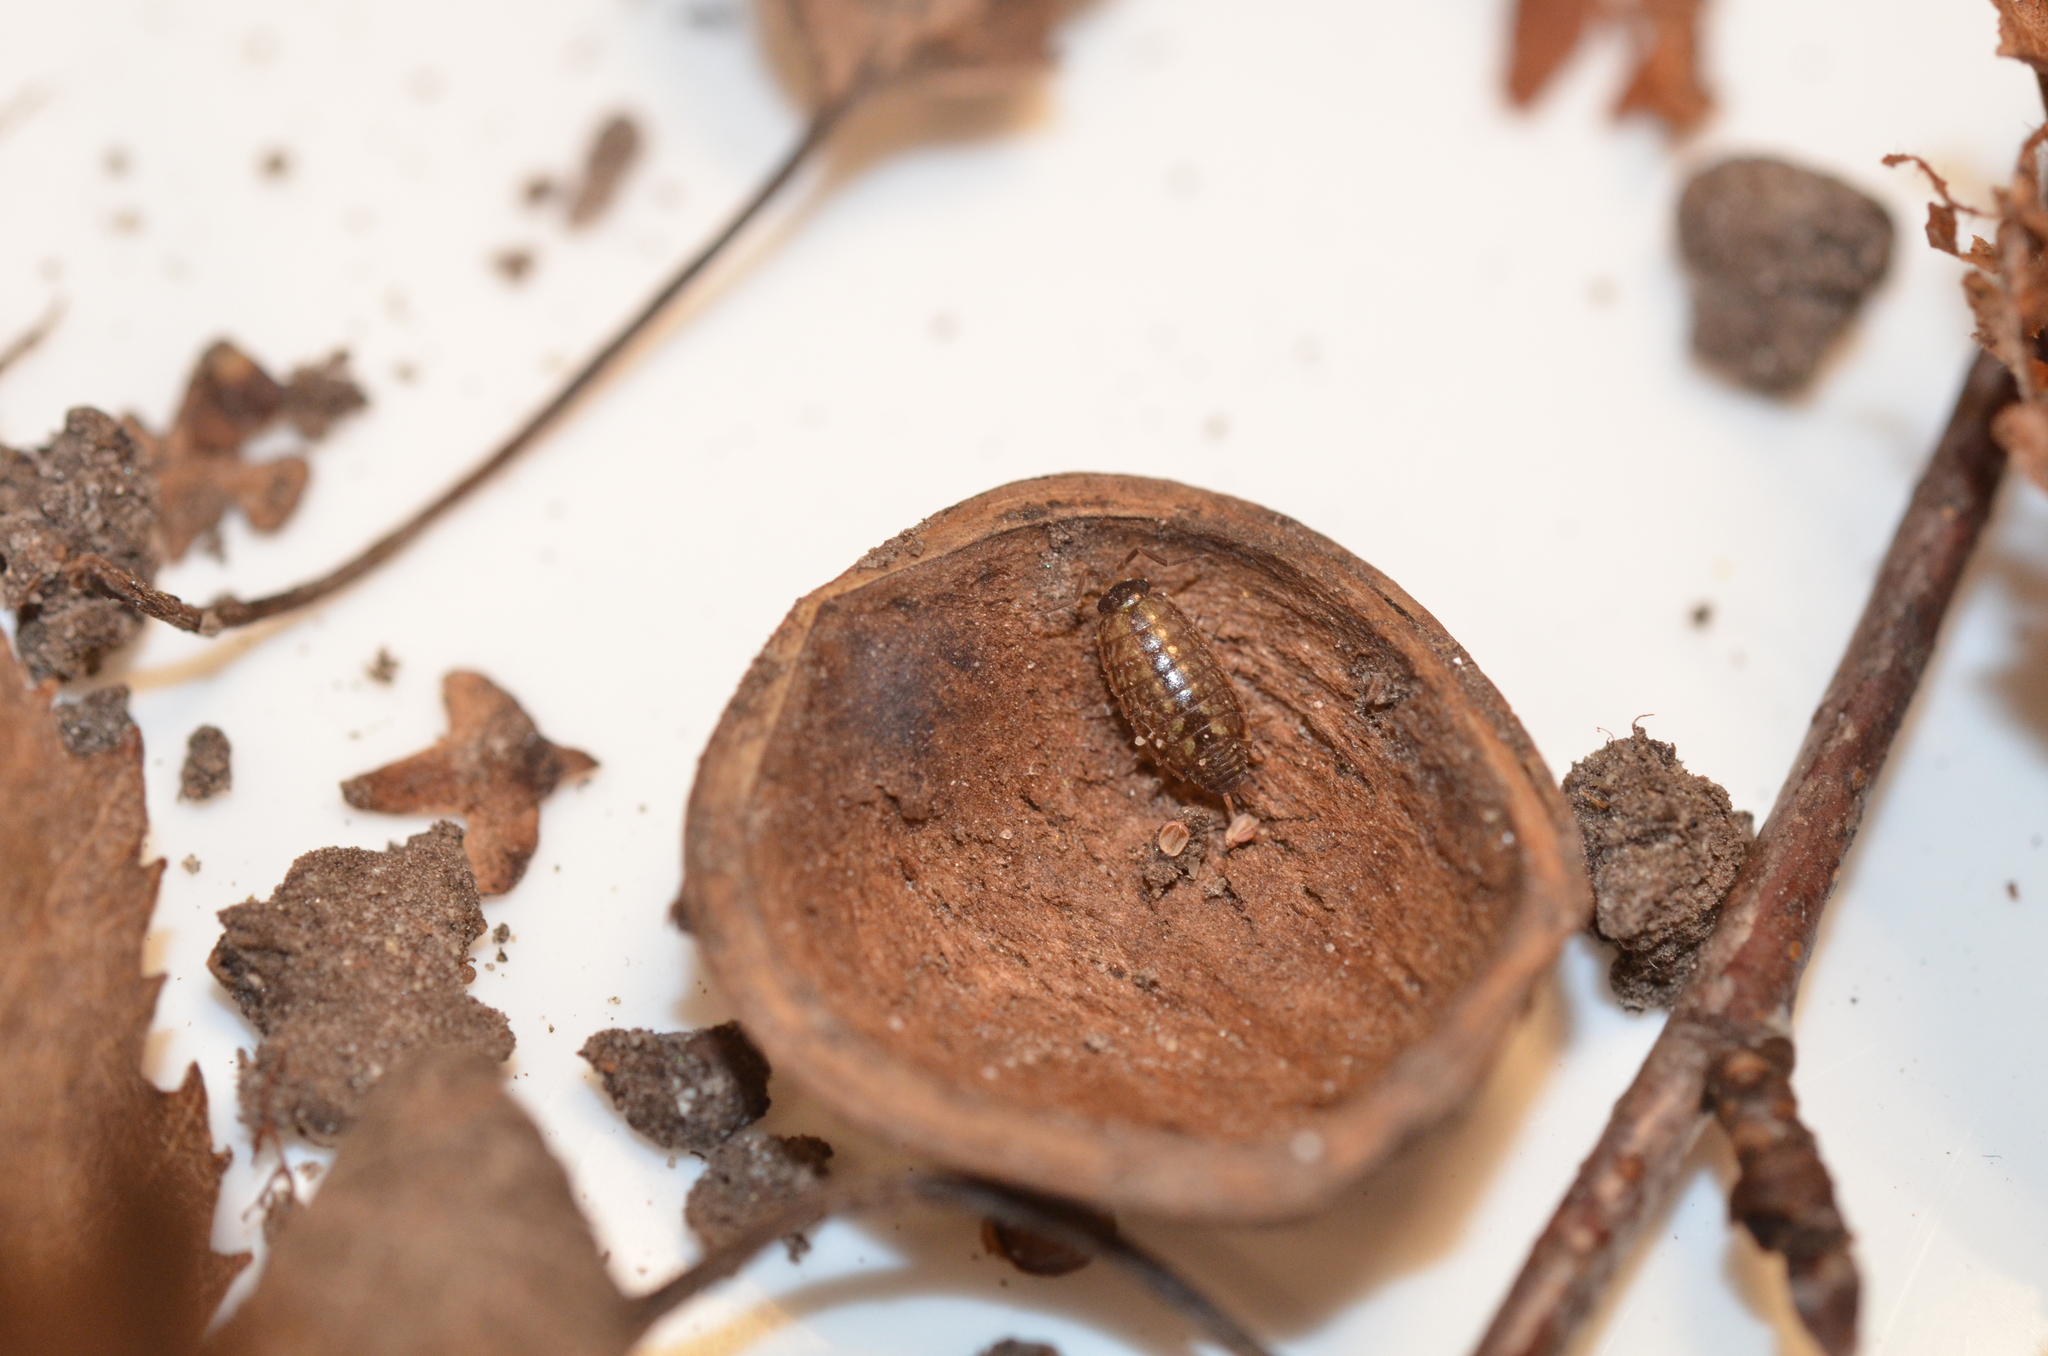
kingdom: Animalia
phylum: Arthropoda
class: Malacostraca
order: Isopoda
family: Philosciidae
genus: Philoscia
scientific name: Philoscia muscorum
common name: Common striped woodlouse
